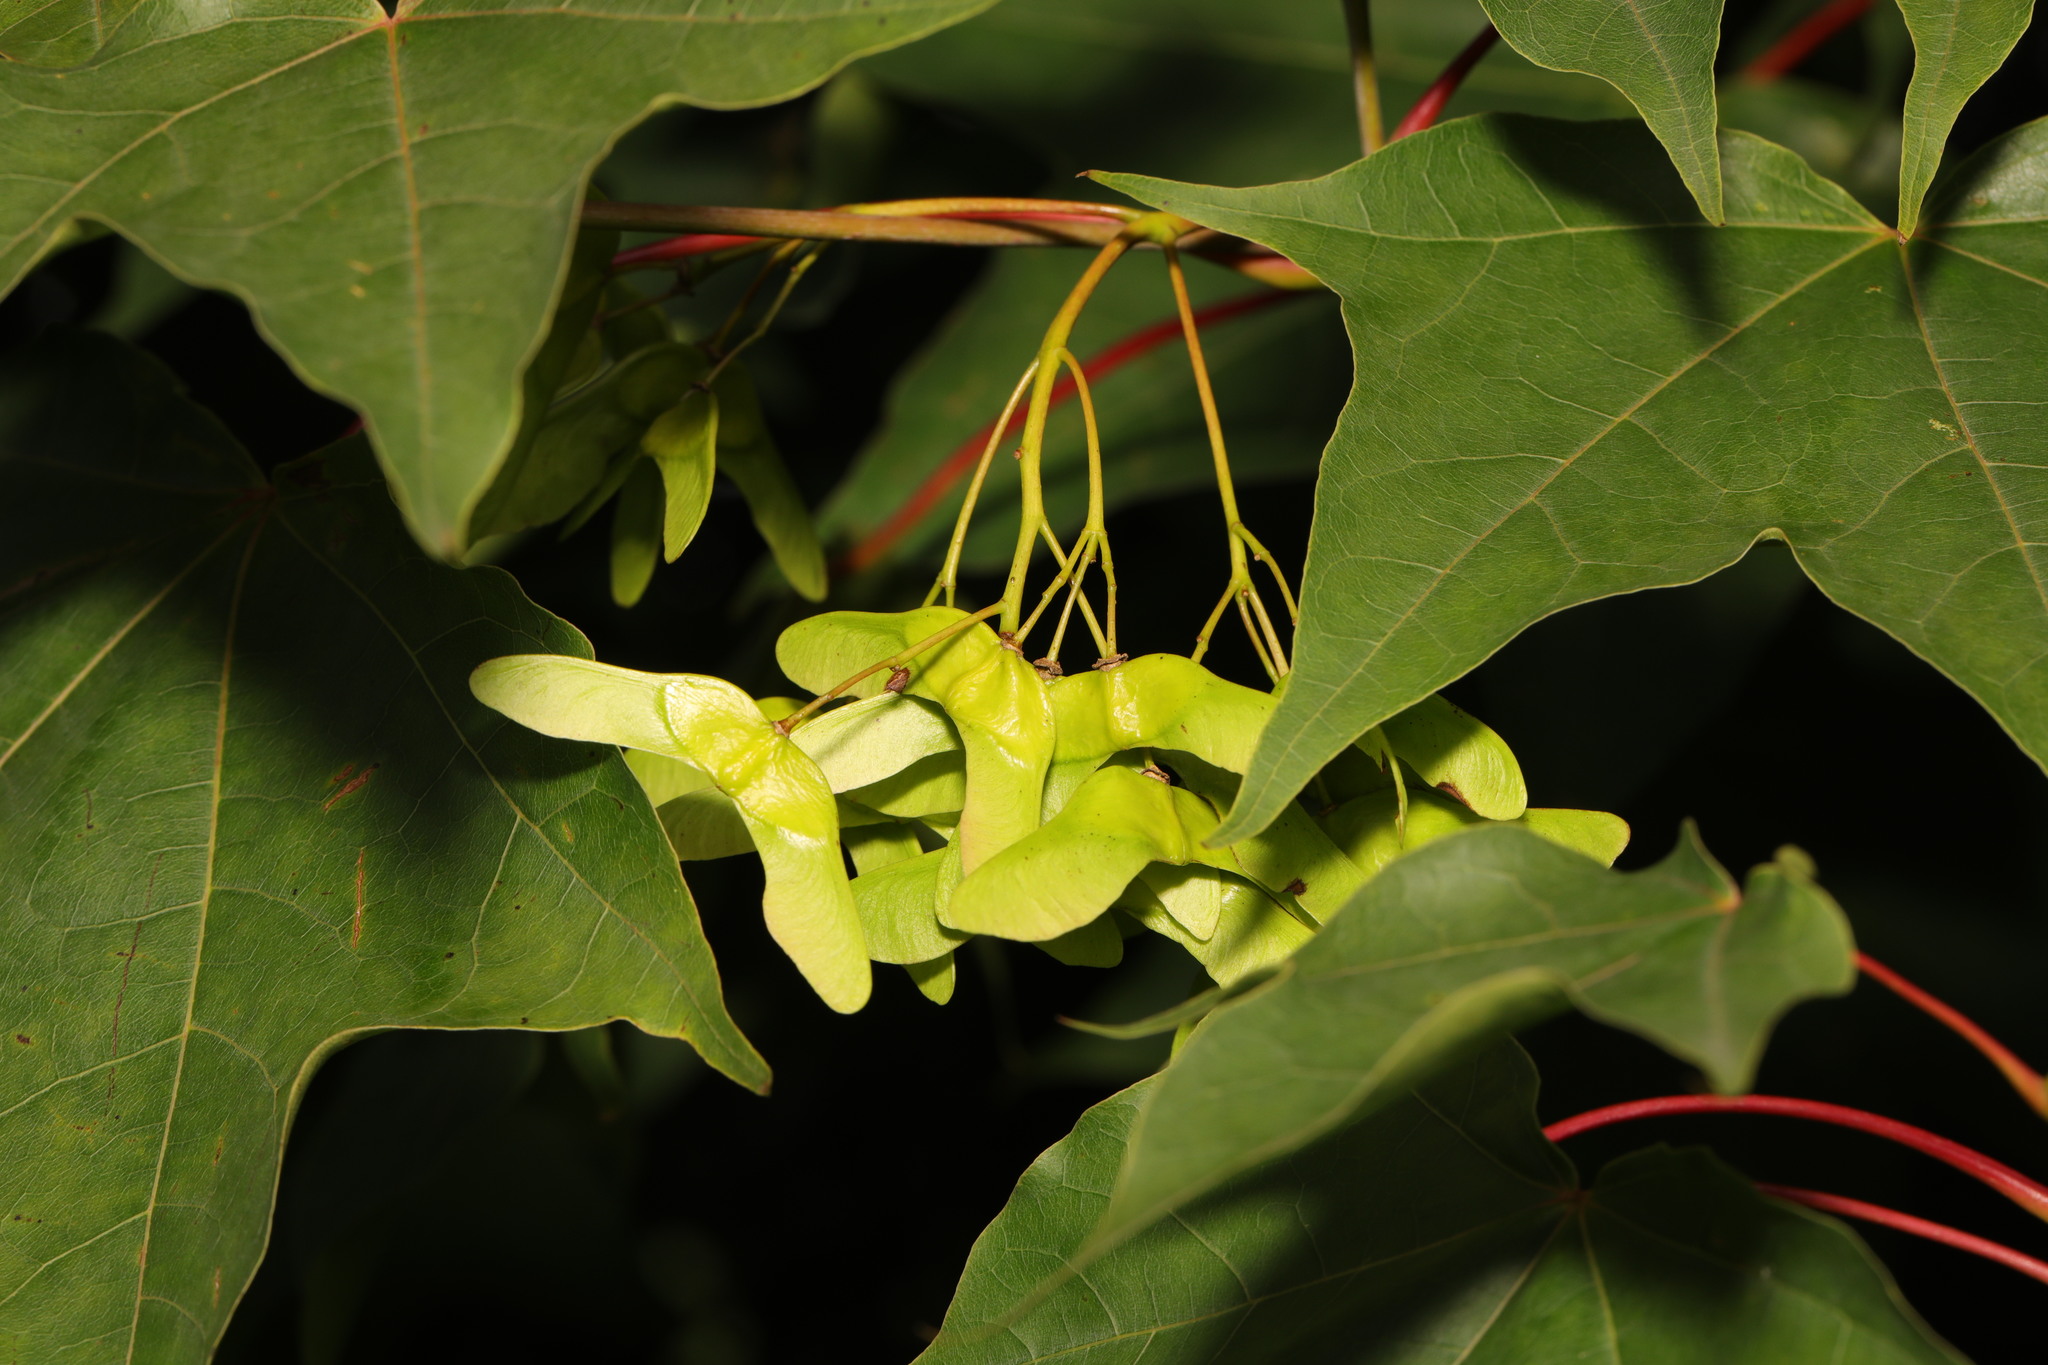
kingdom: Plantae
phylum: Tracheophyta
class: Magnoliopsida
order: Sapindales
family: Sapindaceae
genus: Acer
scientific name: Acer cappadocicum
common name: Cappadocian maple
